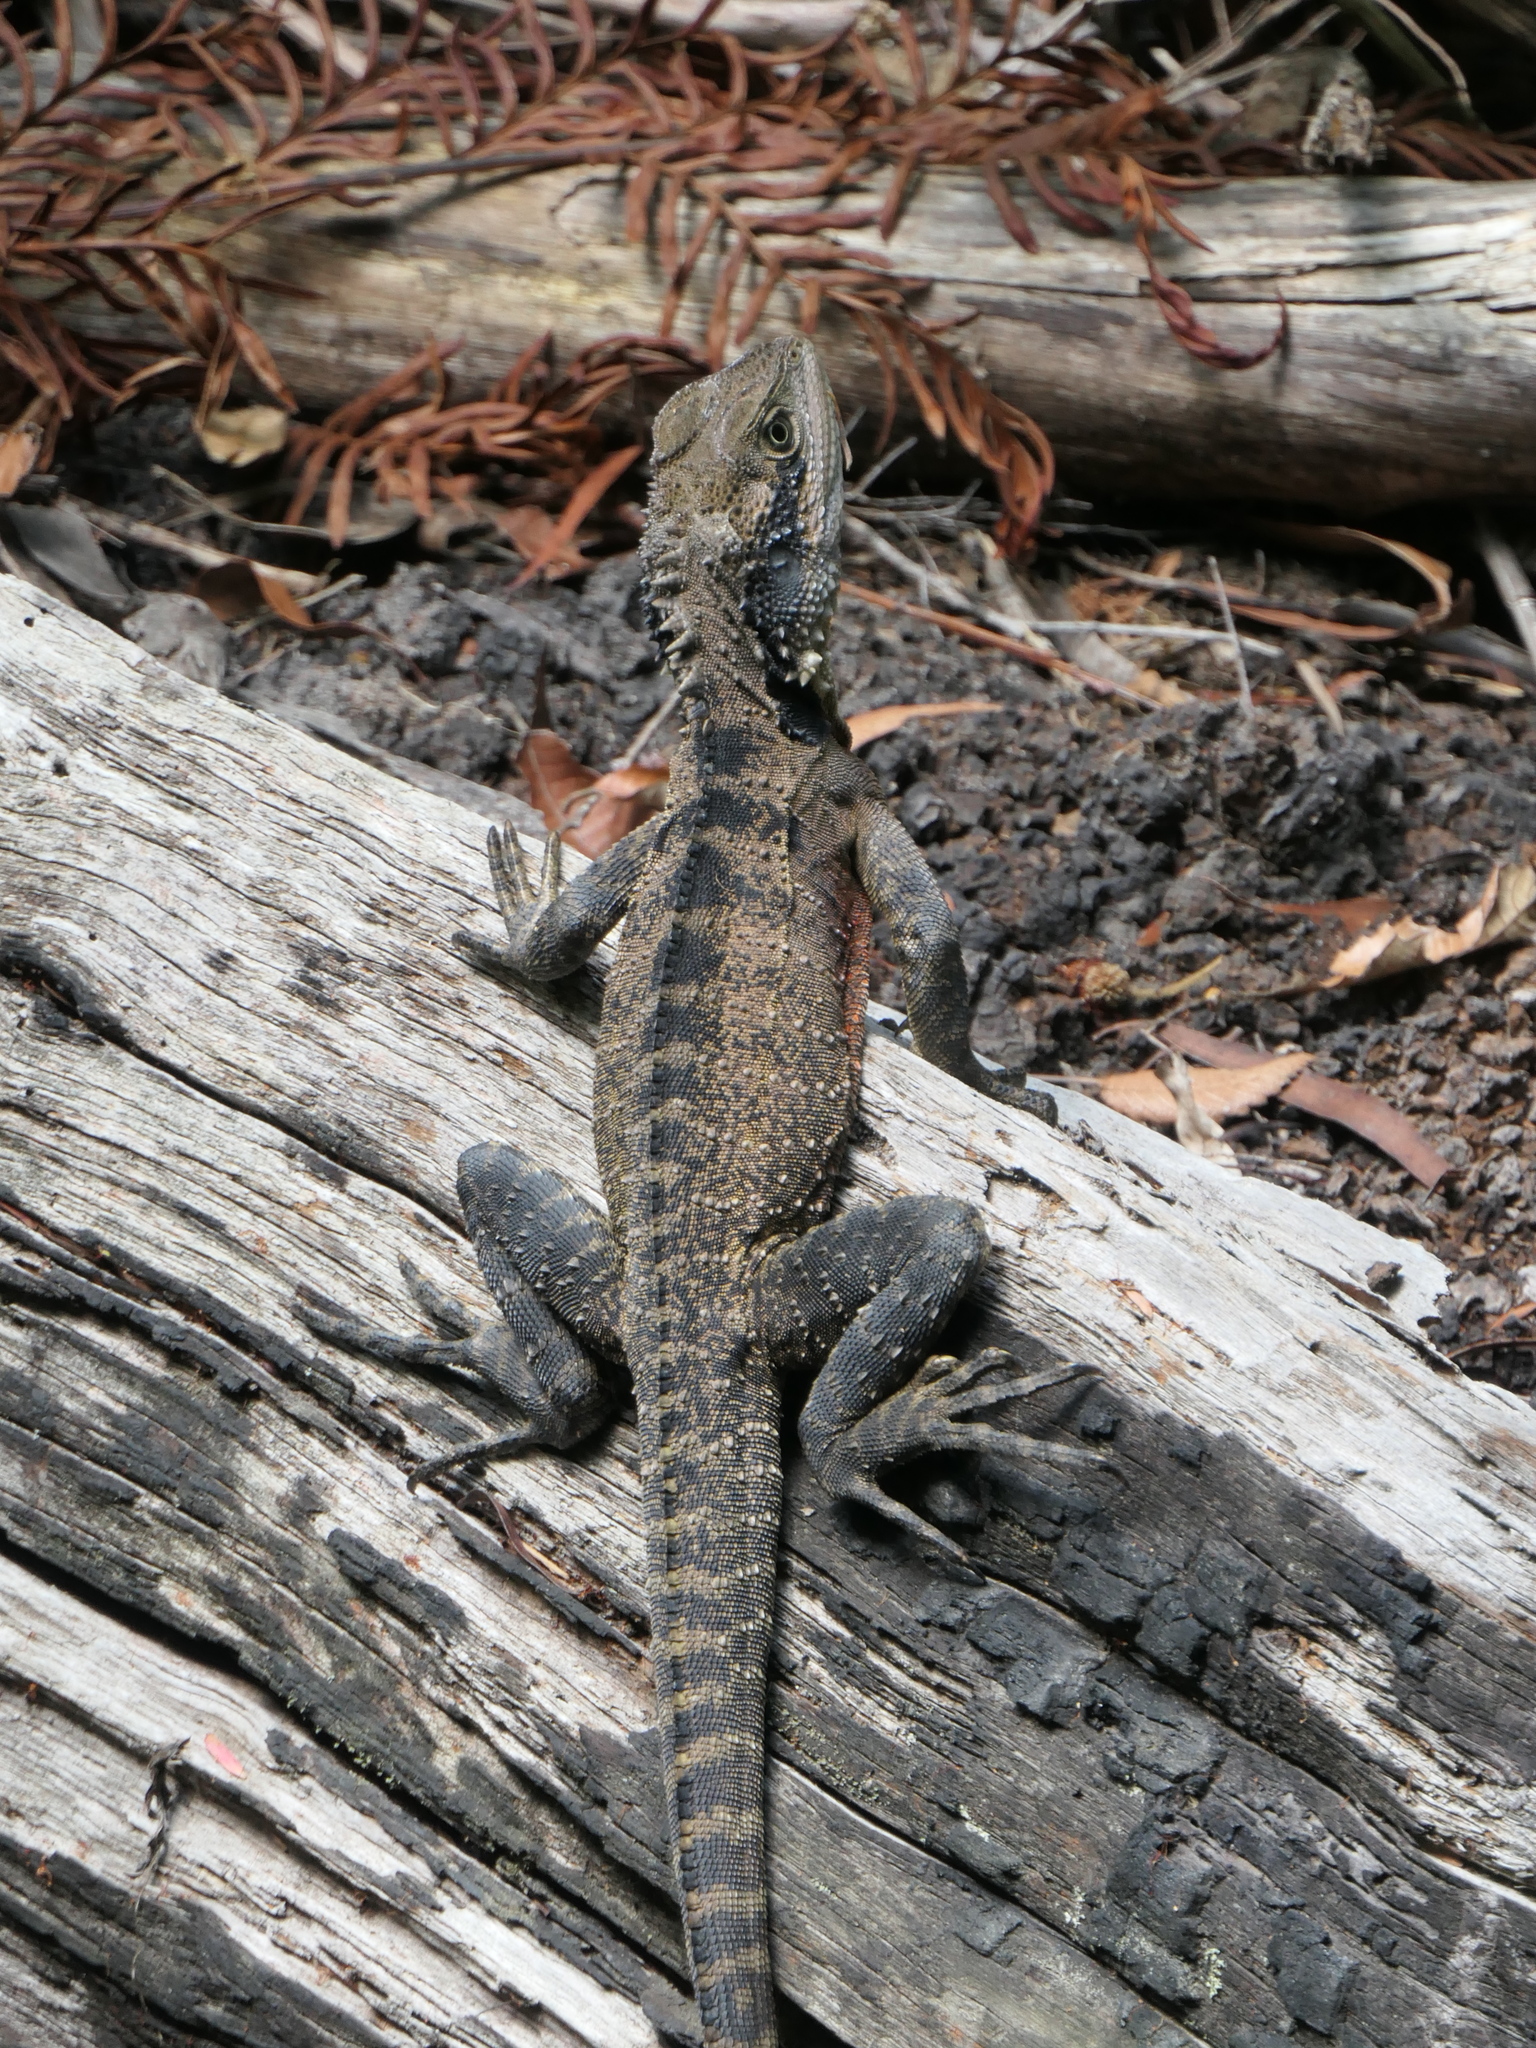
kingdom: Animalia
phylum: Chordata
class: Squamata
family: Agamidae
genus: Intellagama
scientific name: Intellagama lesueurii
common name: Eastern water dragon
